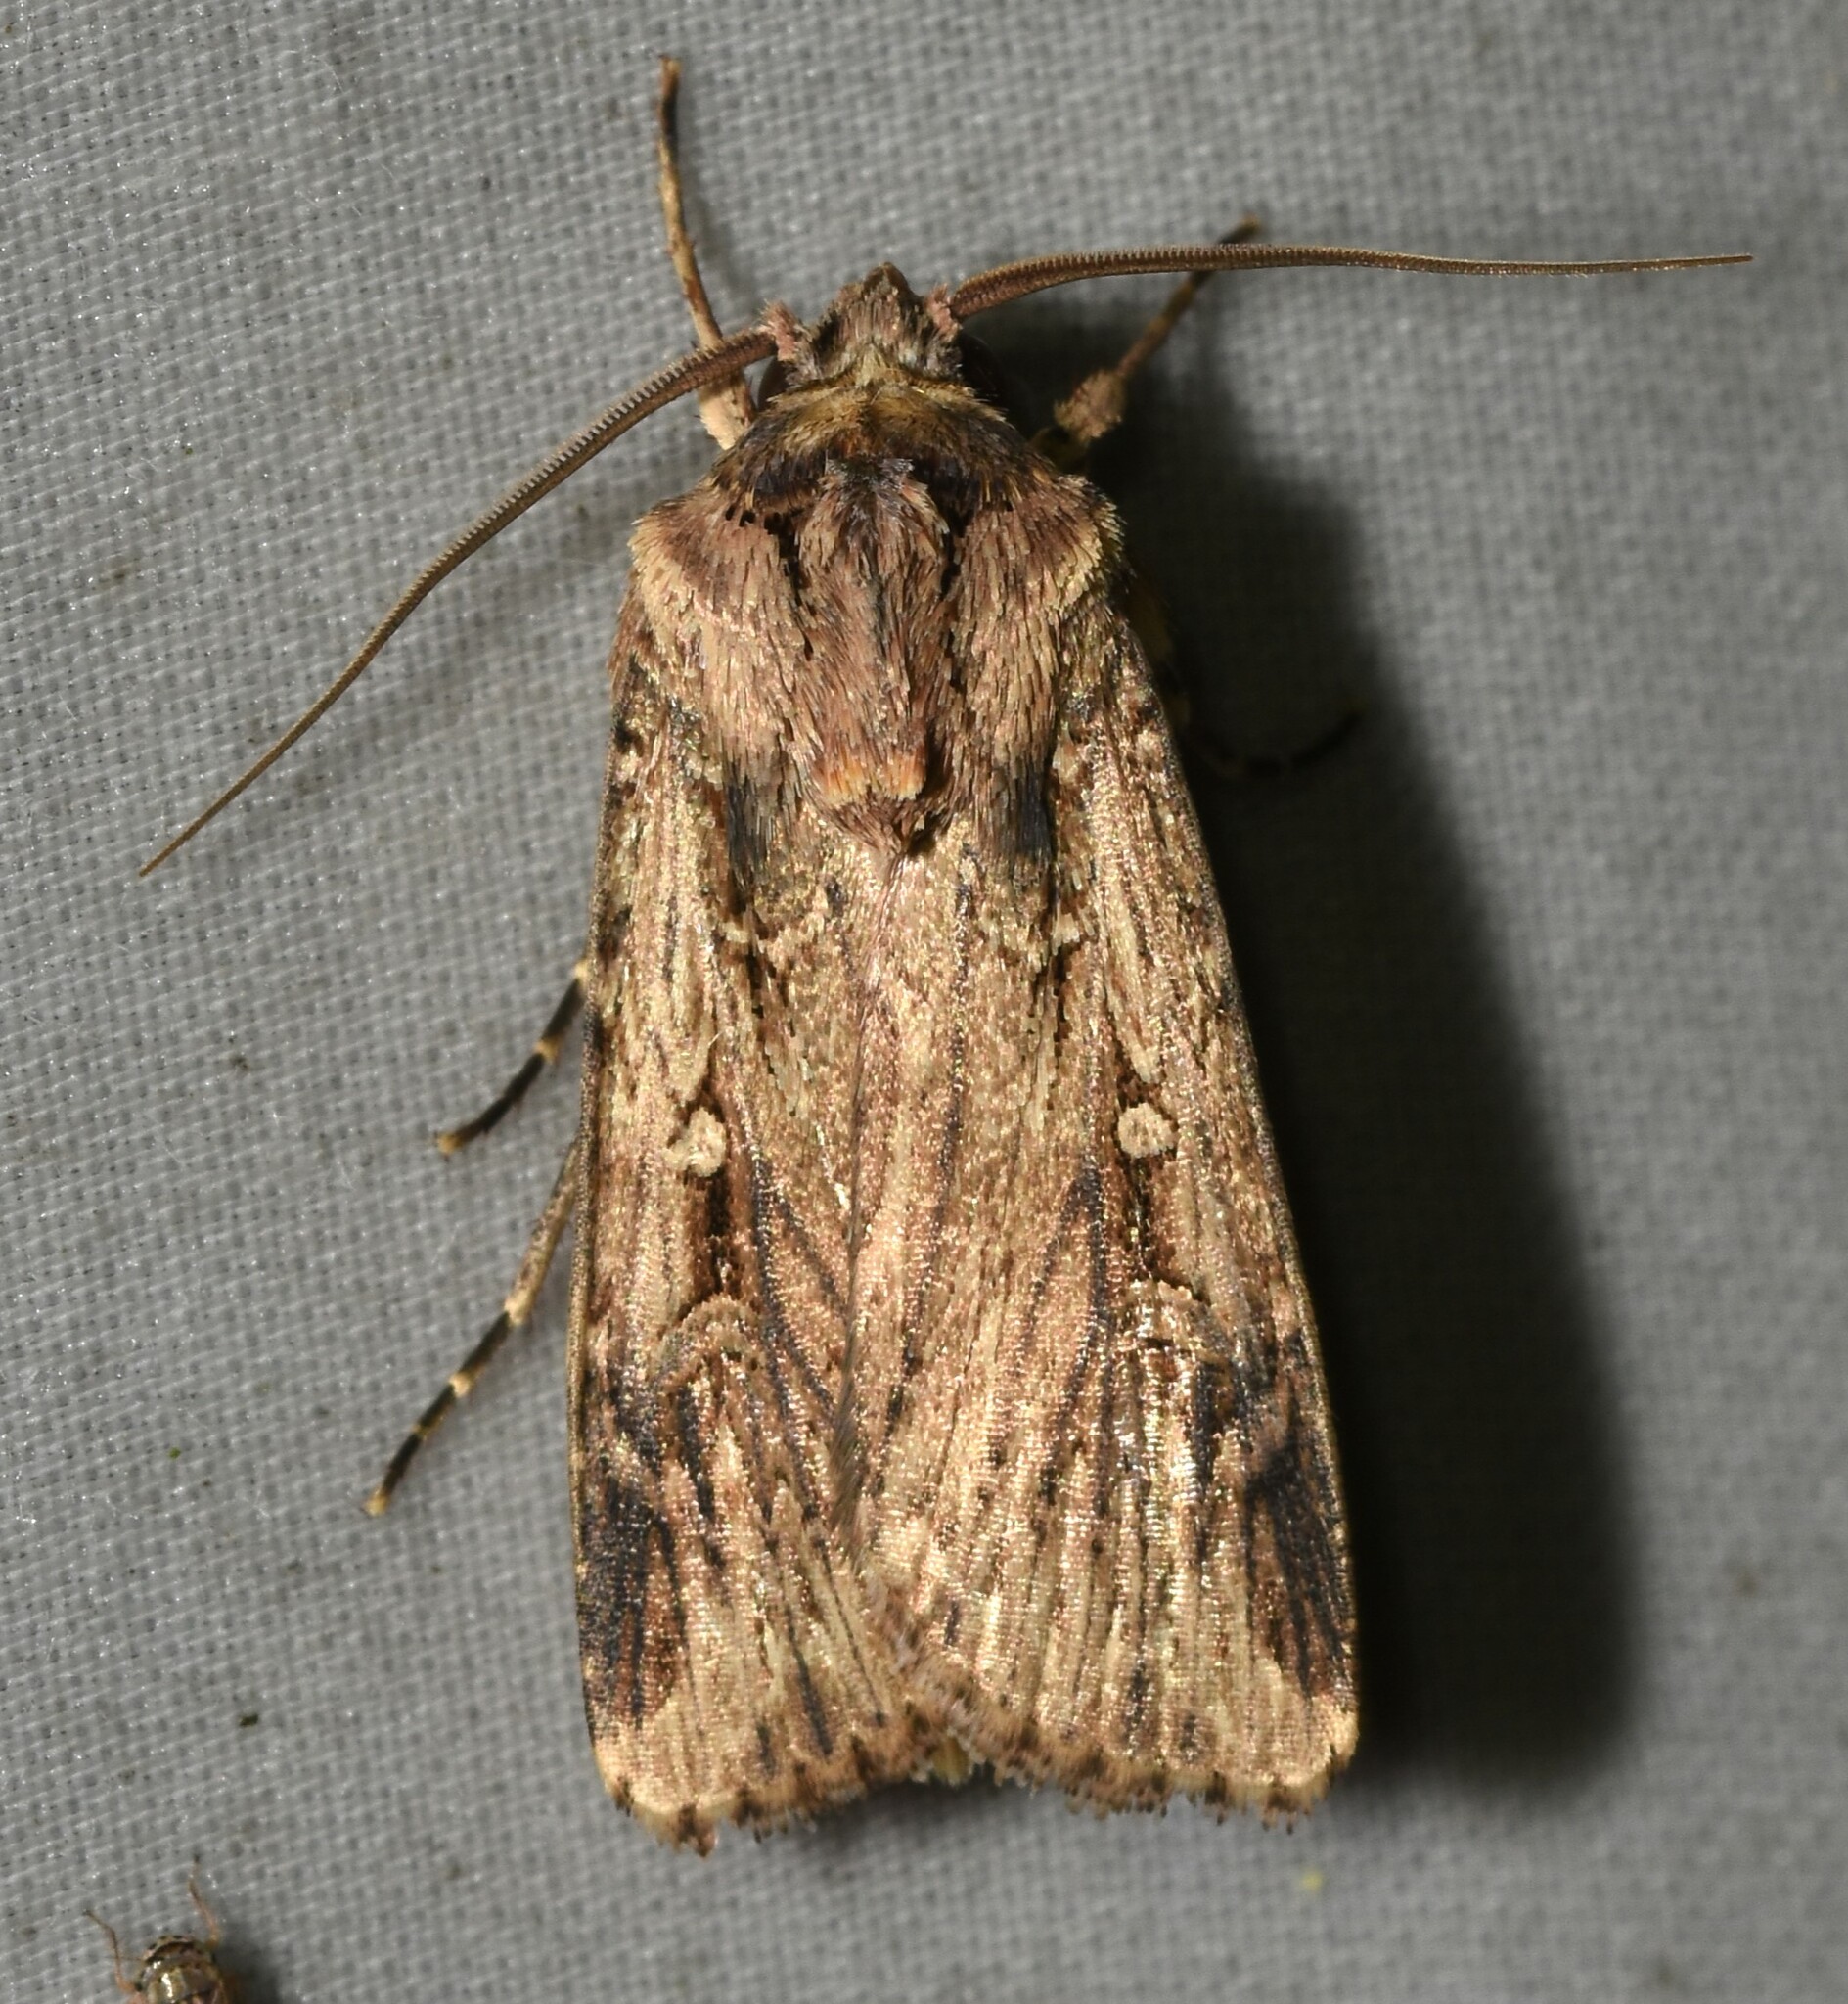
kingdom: Animalia
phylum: Arthropoda
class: Insecta
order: Lepidoptera
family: Noctuidae
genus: Feltia
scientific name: Feltia subterranea
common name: Granulate cutworm
